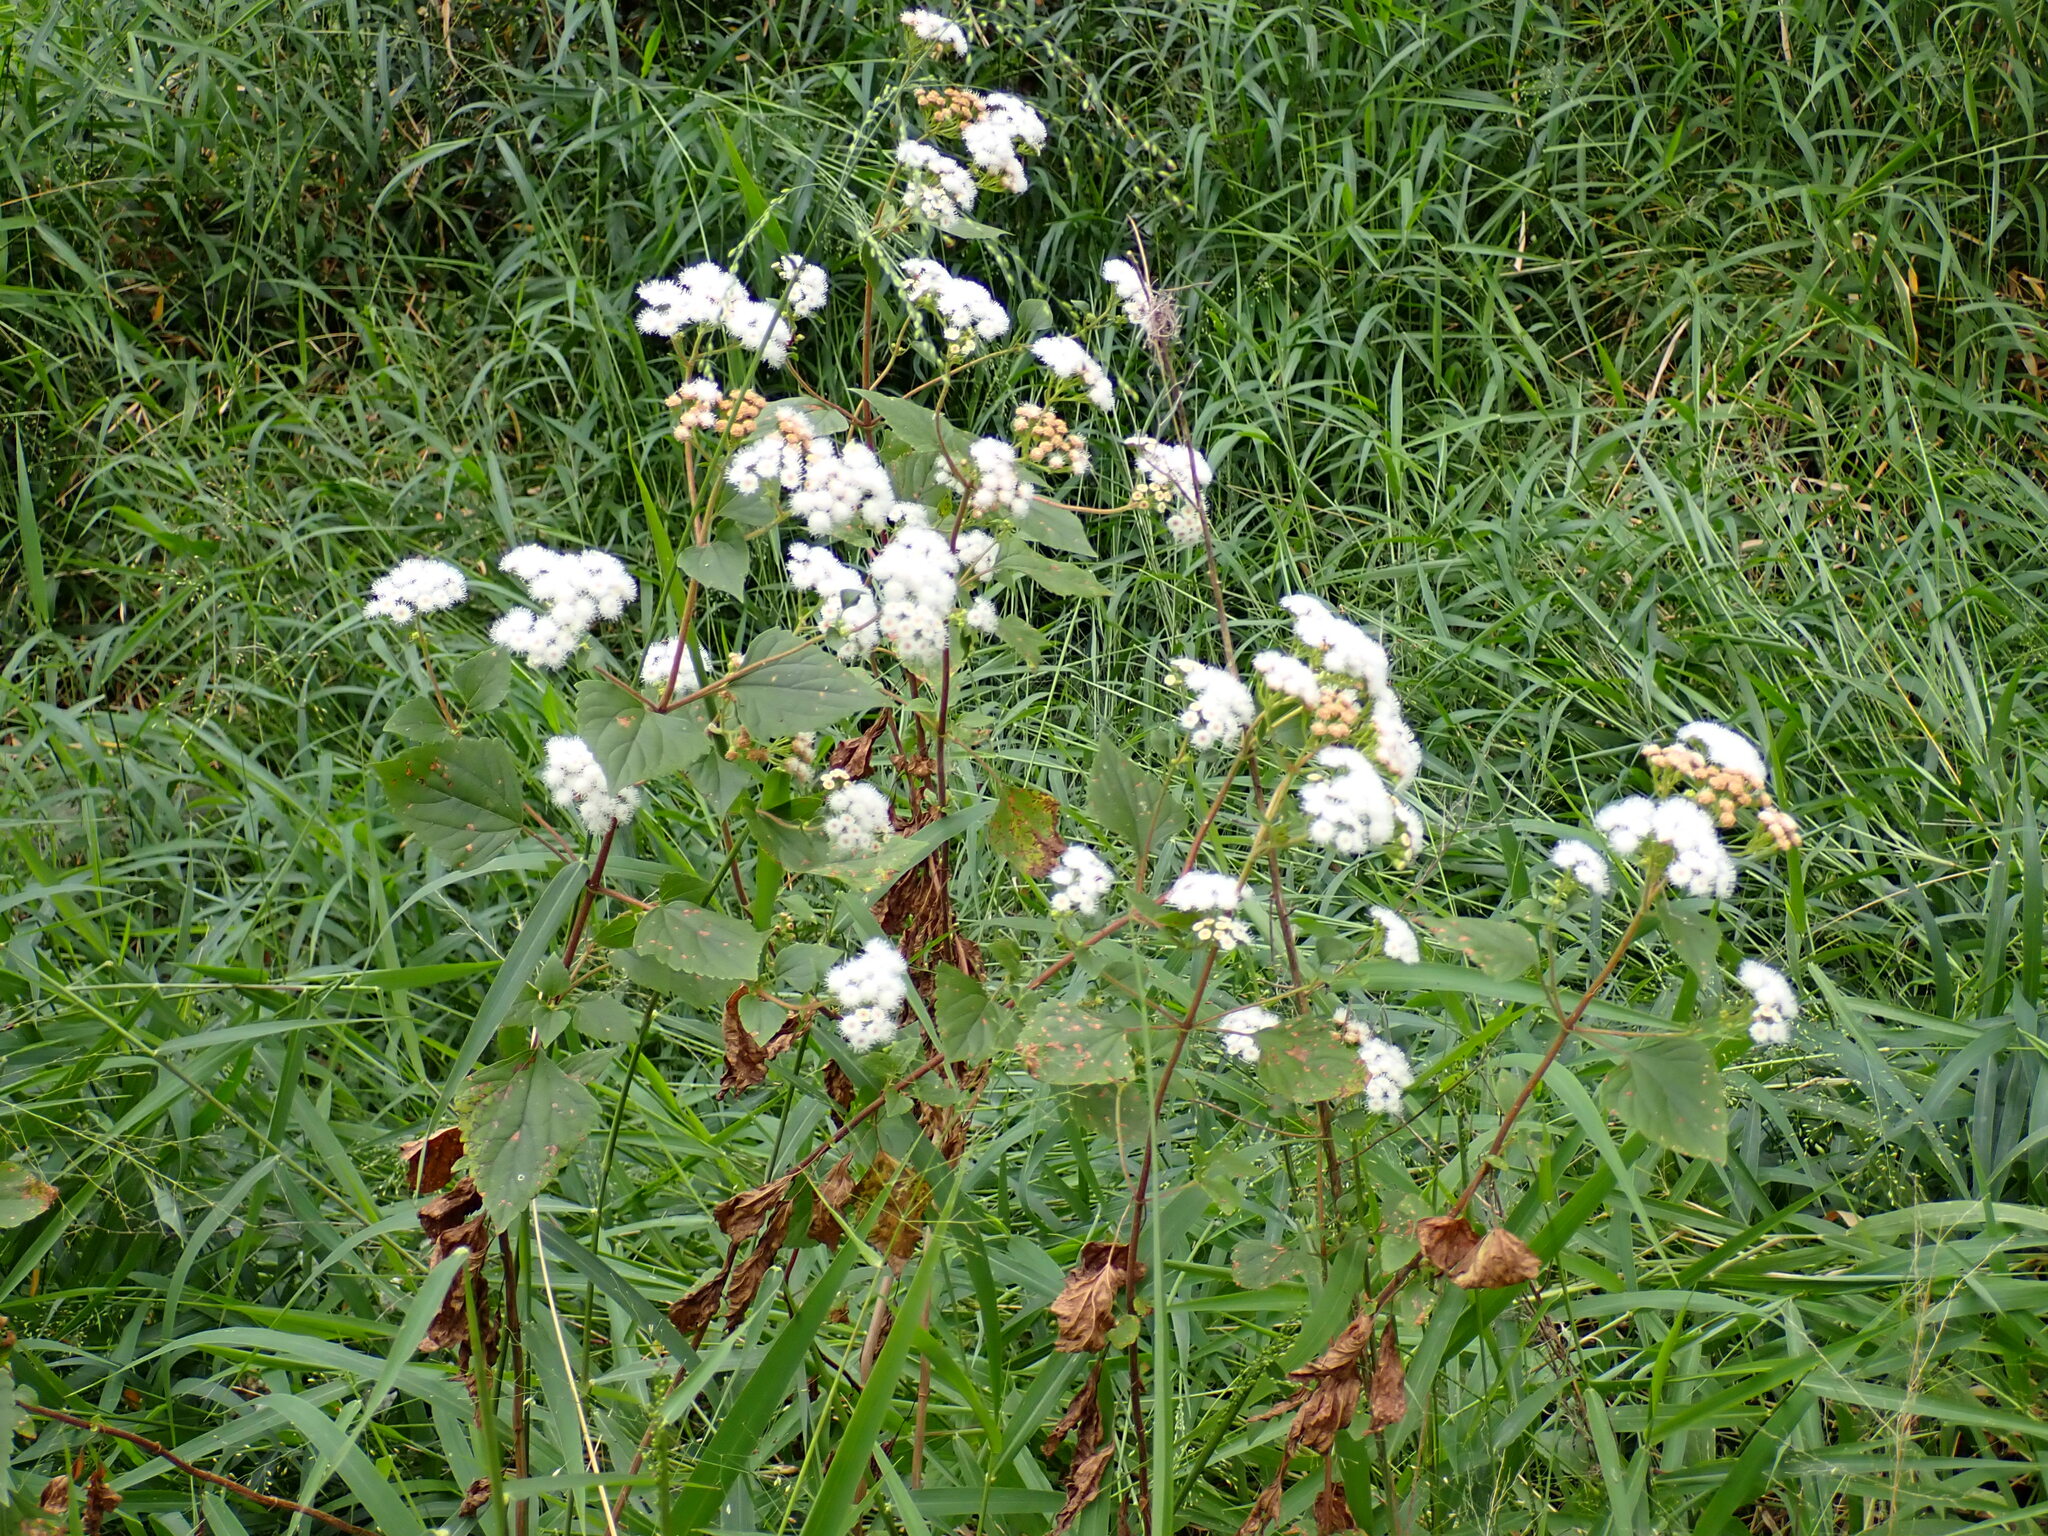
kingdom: Plantae
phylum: Tracheophyta
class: Magnoliopsida
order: Asterales
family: Asteraceae
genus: Ageratina
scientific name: Ageratina adenophora
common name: Sticky snakeroot
